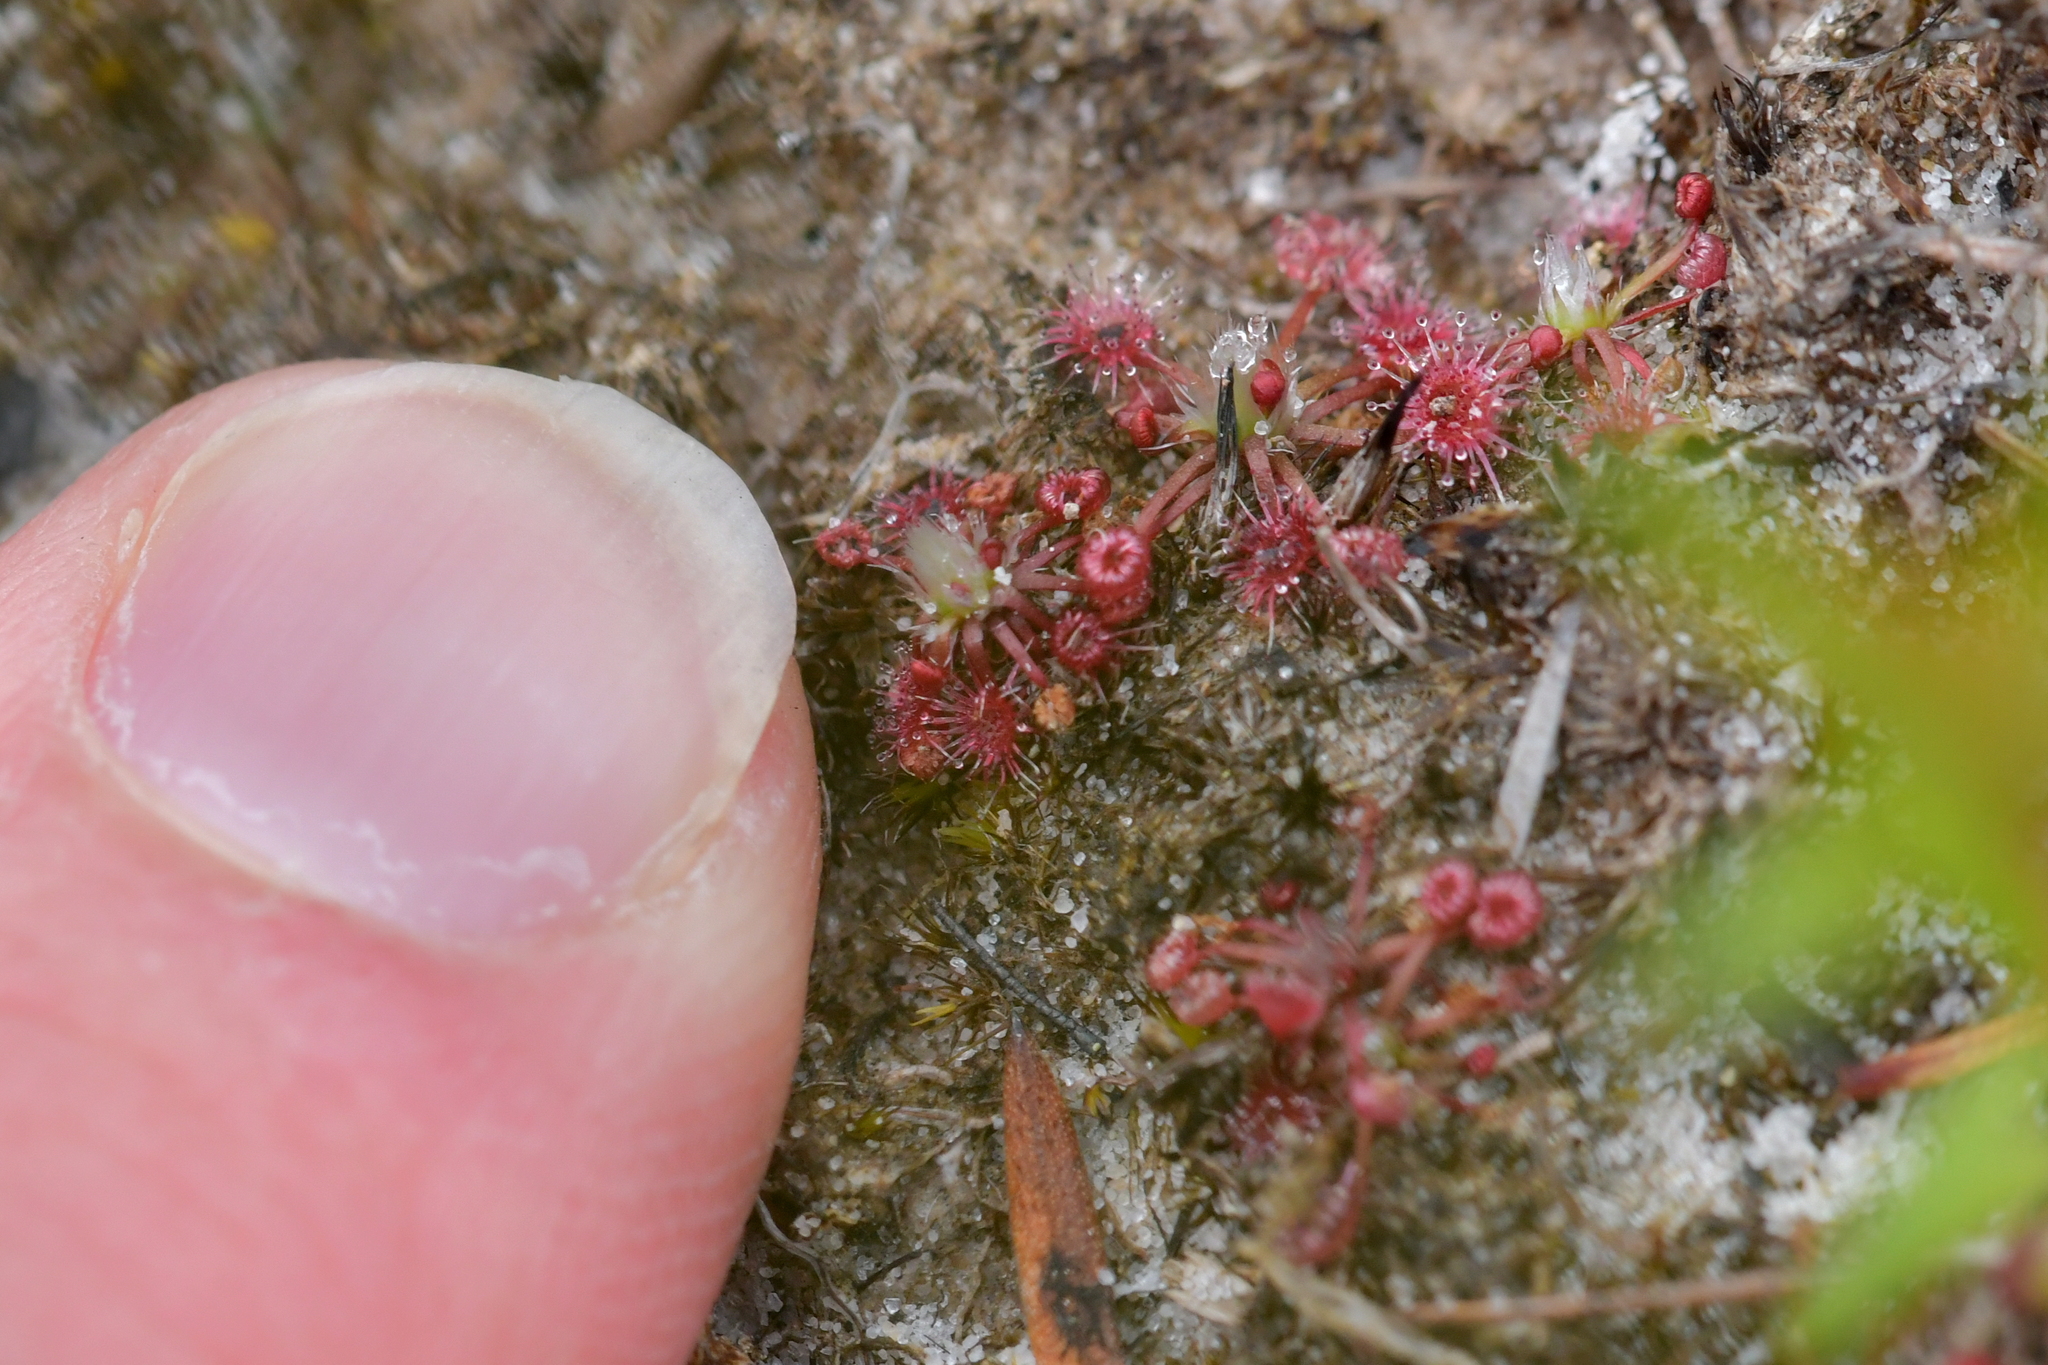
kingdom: Plantae
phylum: Tracheophyta
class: Magnoliopsida
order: Caryophyllales
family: Droseraceae
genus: Drosera
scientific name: Drosera pygmaea
